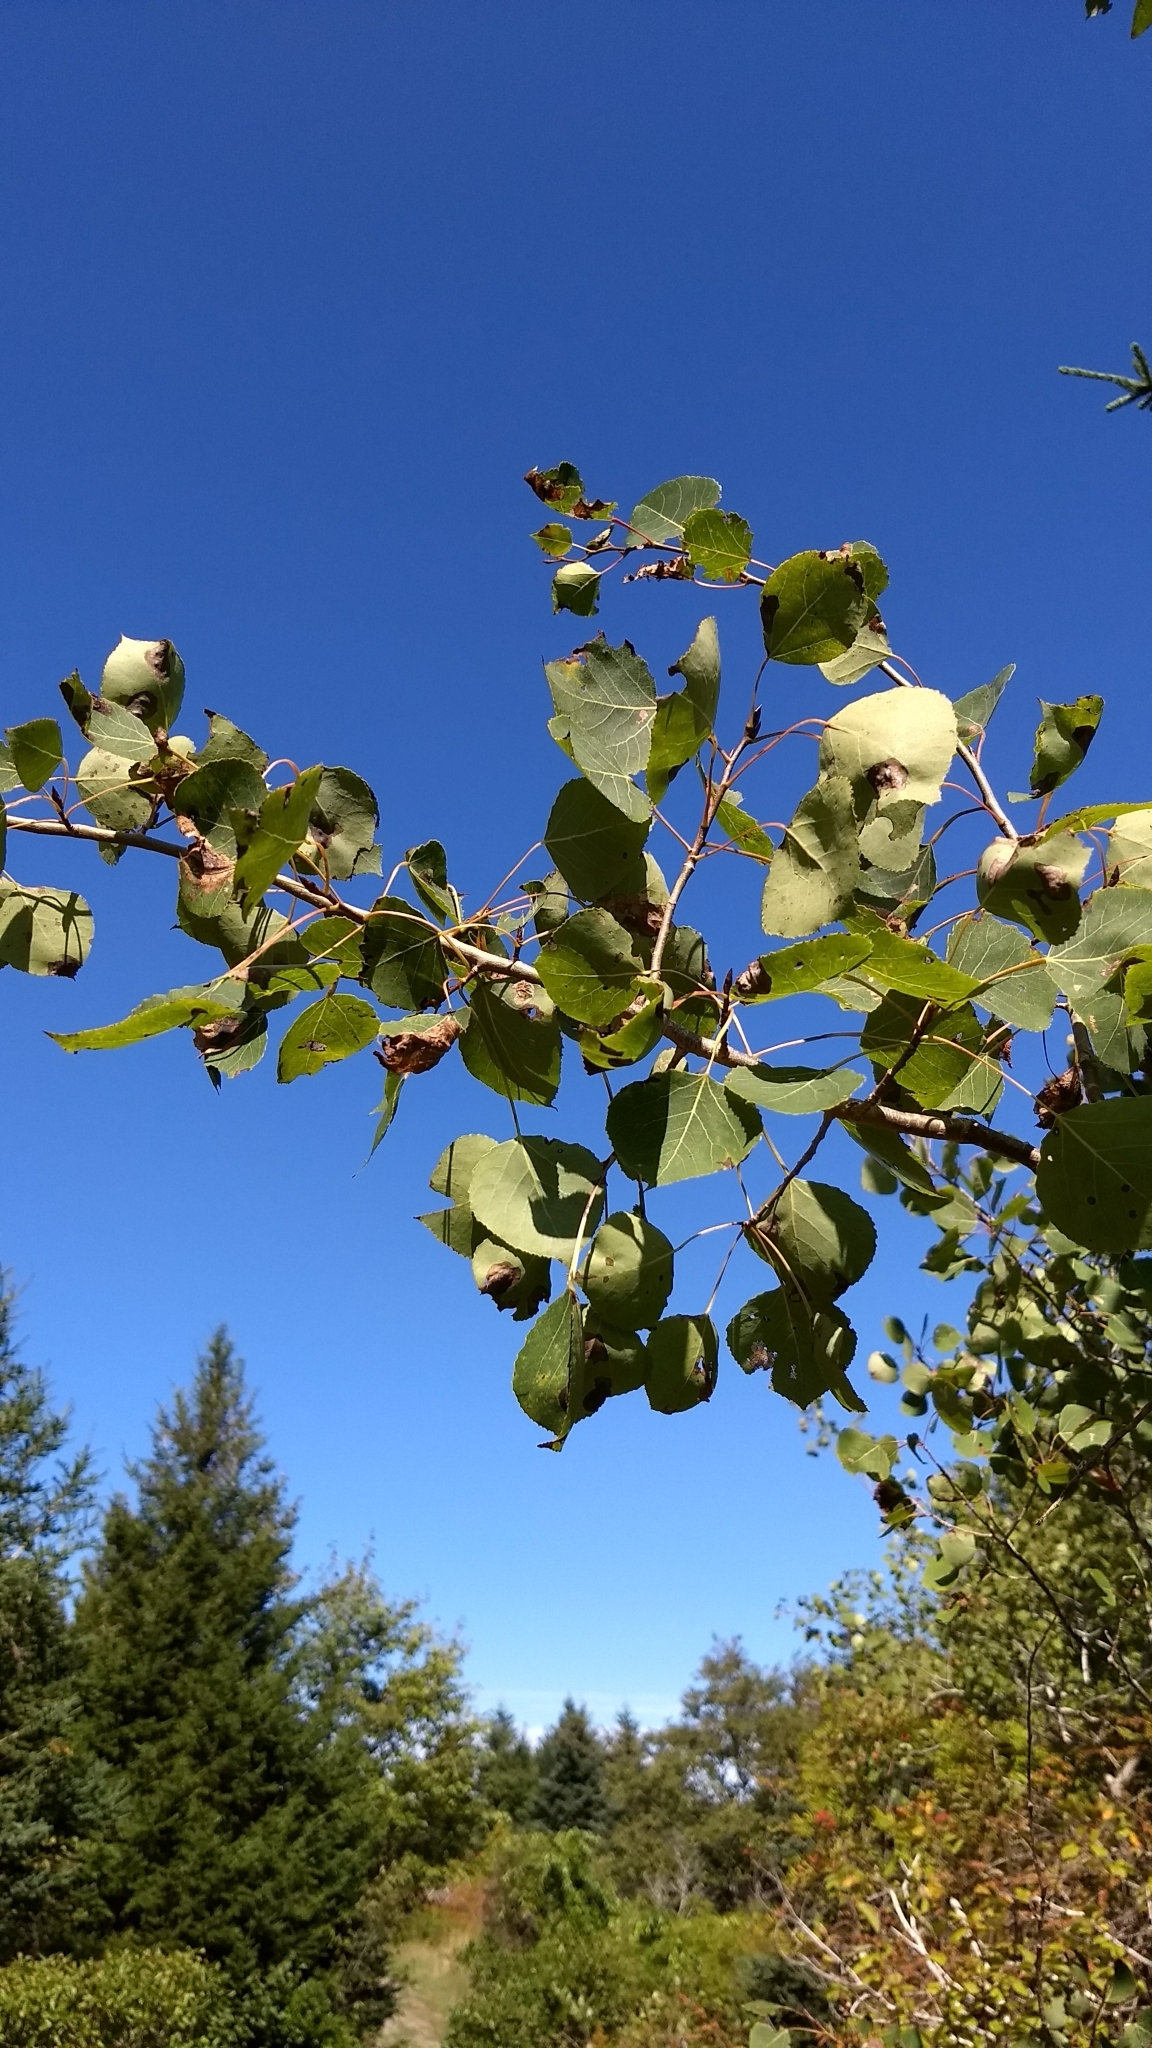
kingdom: Plantae
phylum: Tracheophyta
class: Magnoliopsida
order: Malpighiales
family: Salicaceae
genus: Populus
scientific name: Populus tremuloides
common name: Quaking aspen
